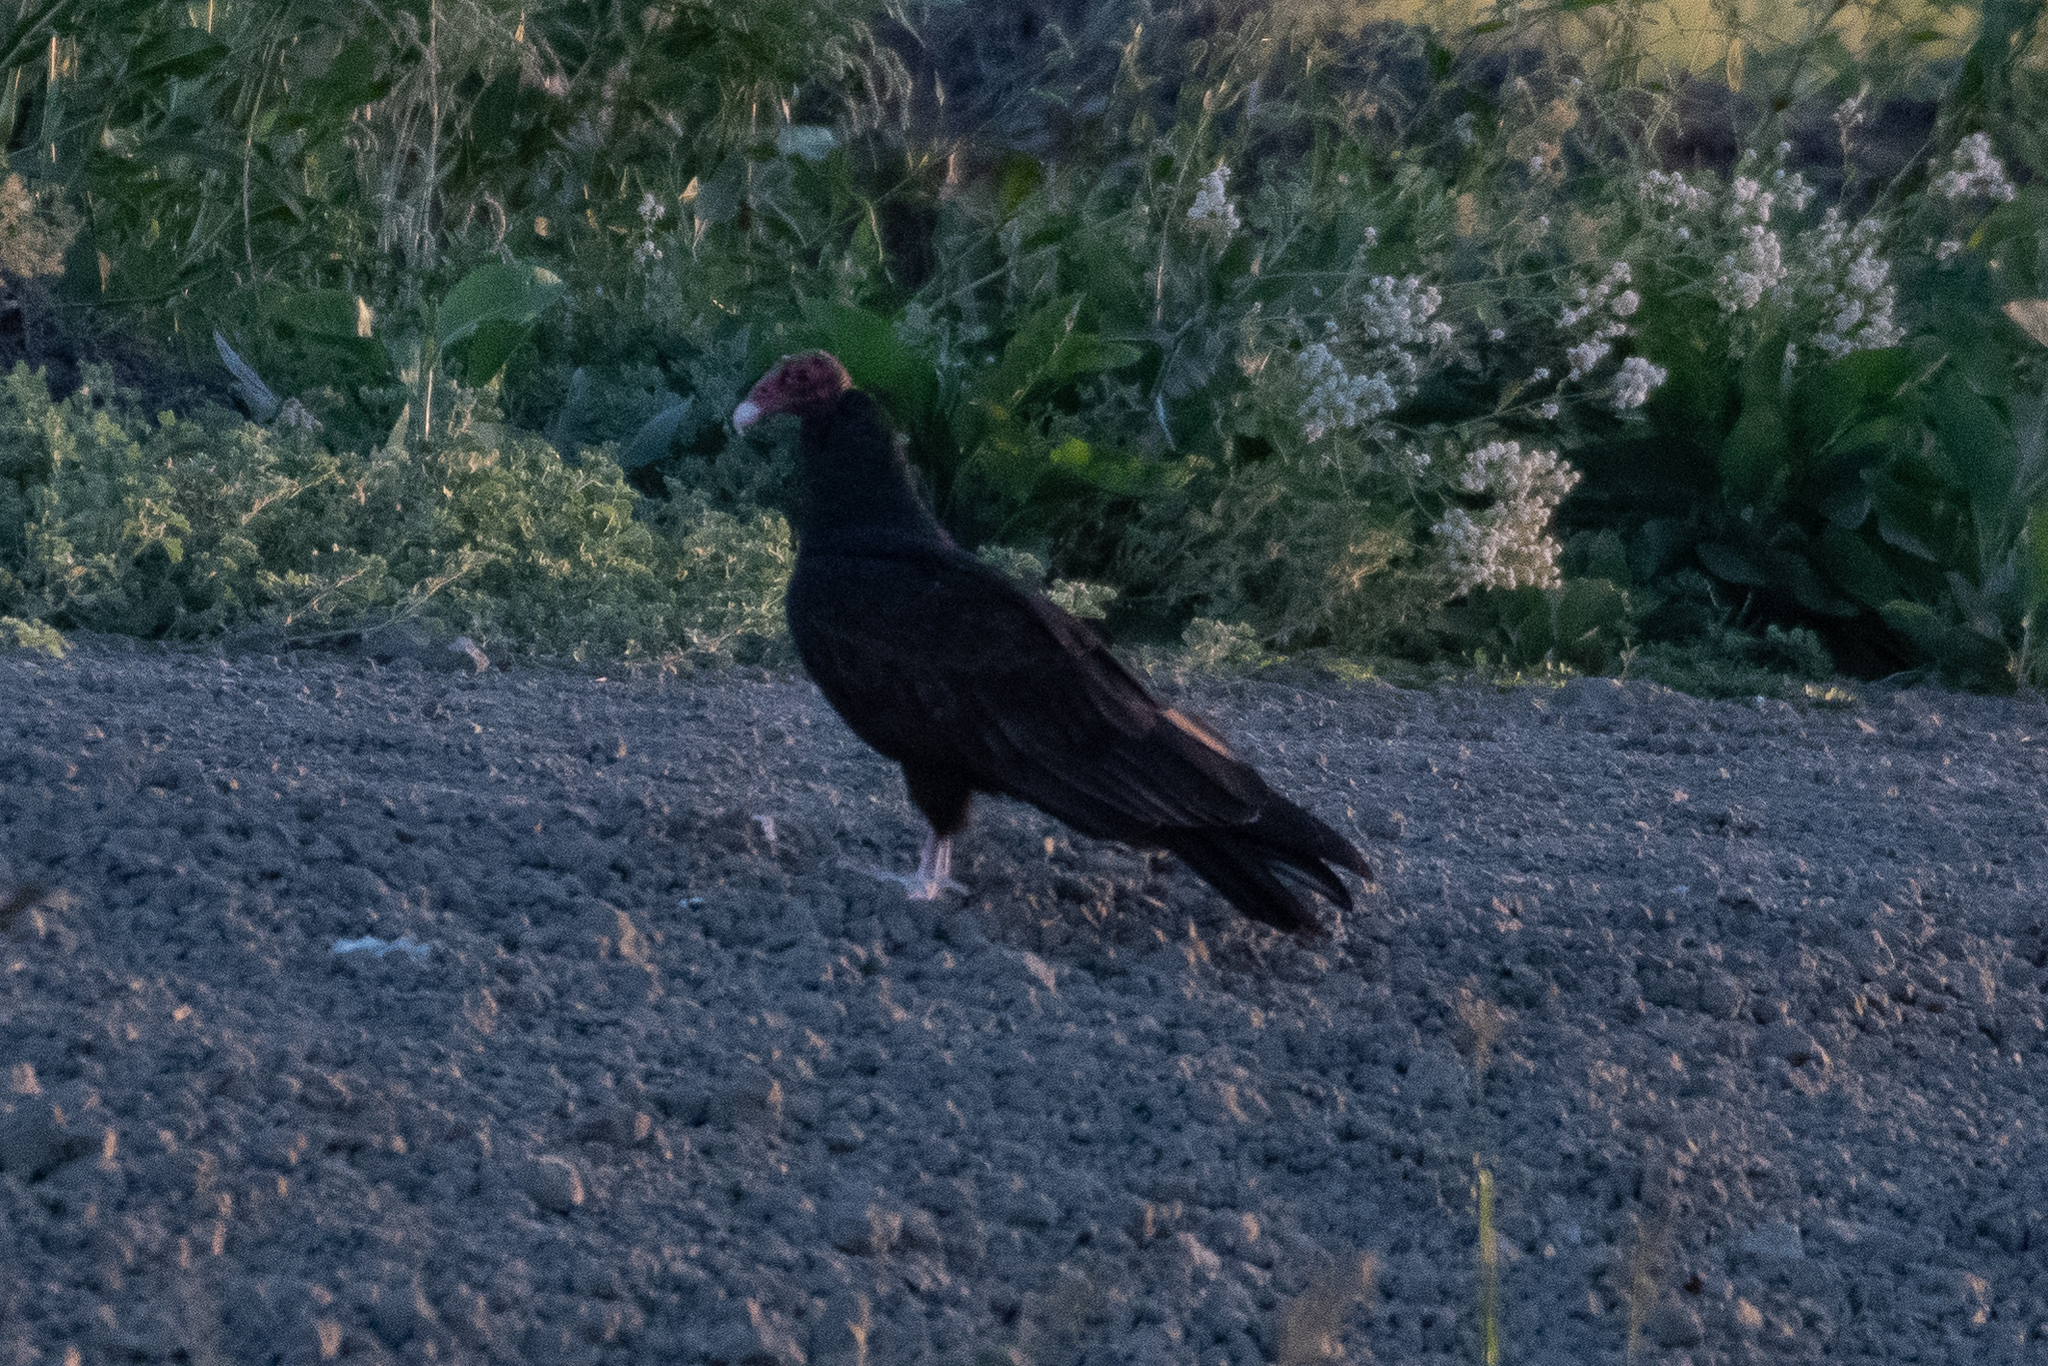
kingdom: Animalia
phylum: Chordata
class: Aves
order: Accipitriformes
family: Cathartidae
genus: Cathartes
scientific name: Cathartes aura
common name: Turkey vulture
